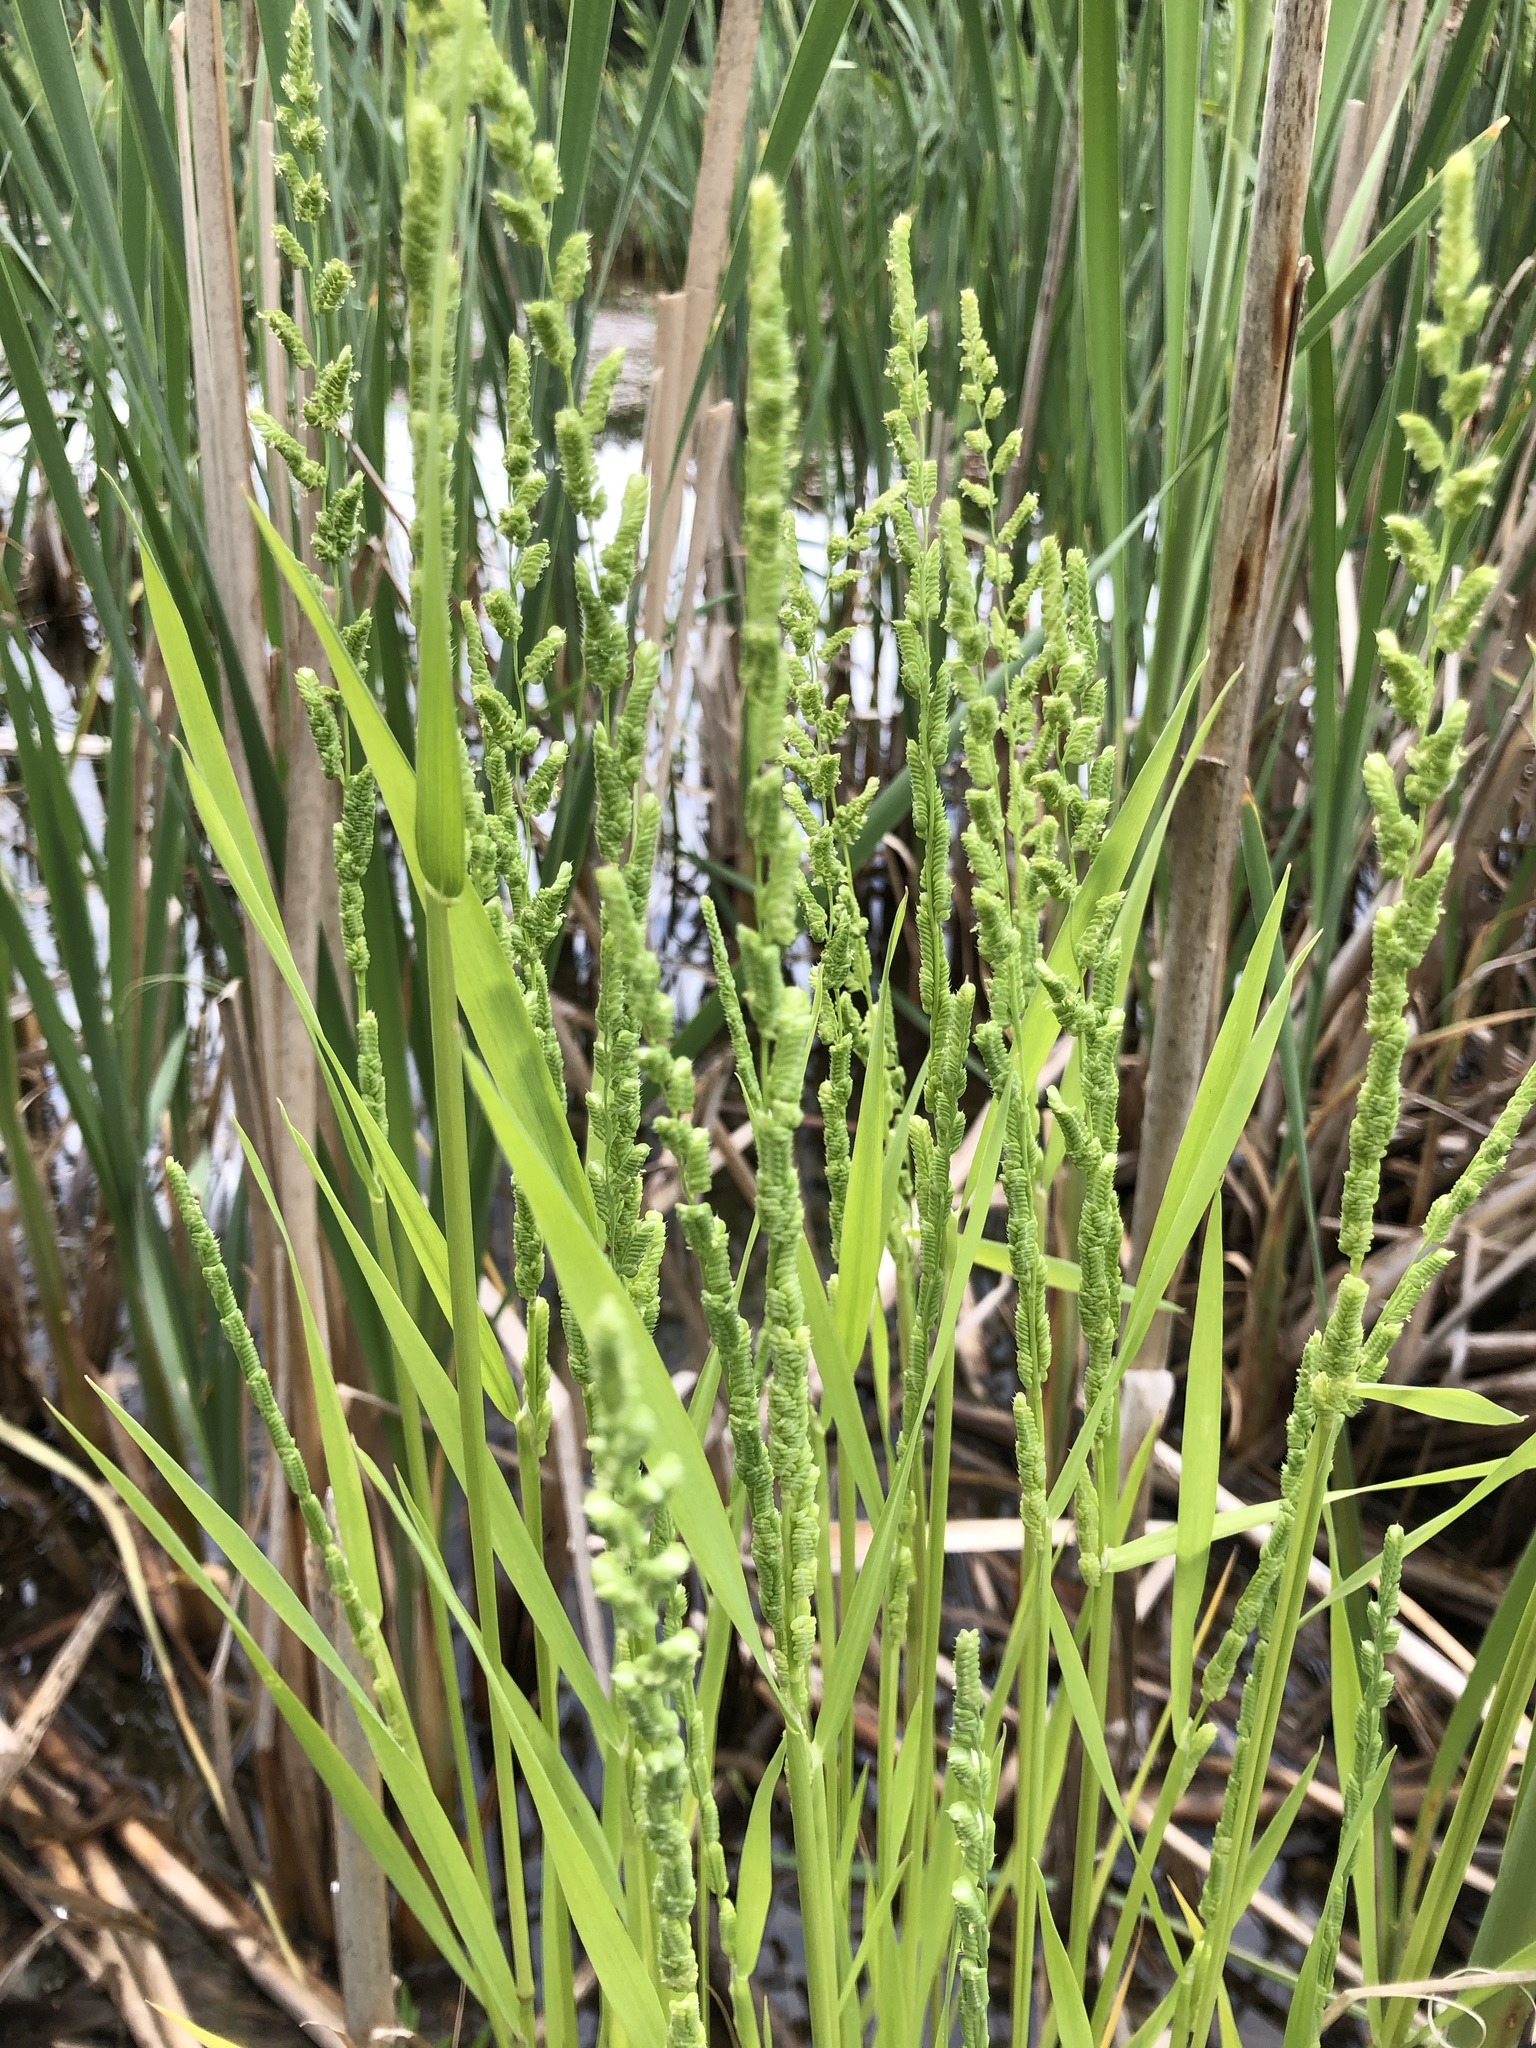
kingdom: Plantae
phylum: Tracheophyta
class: Liliopsida
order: Poales
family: Poaceae
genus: Beckmannia
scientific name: Beckmannia syzigachne
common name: American slough-grass
